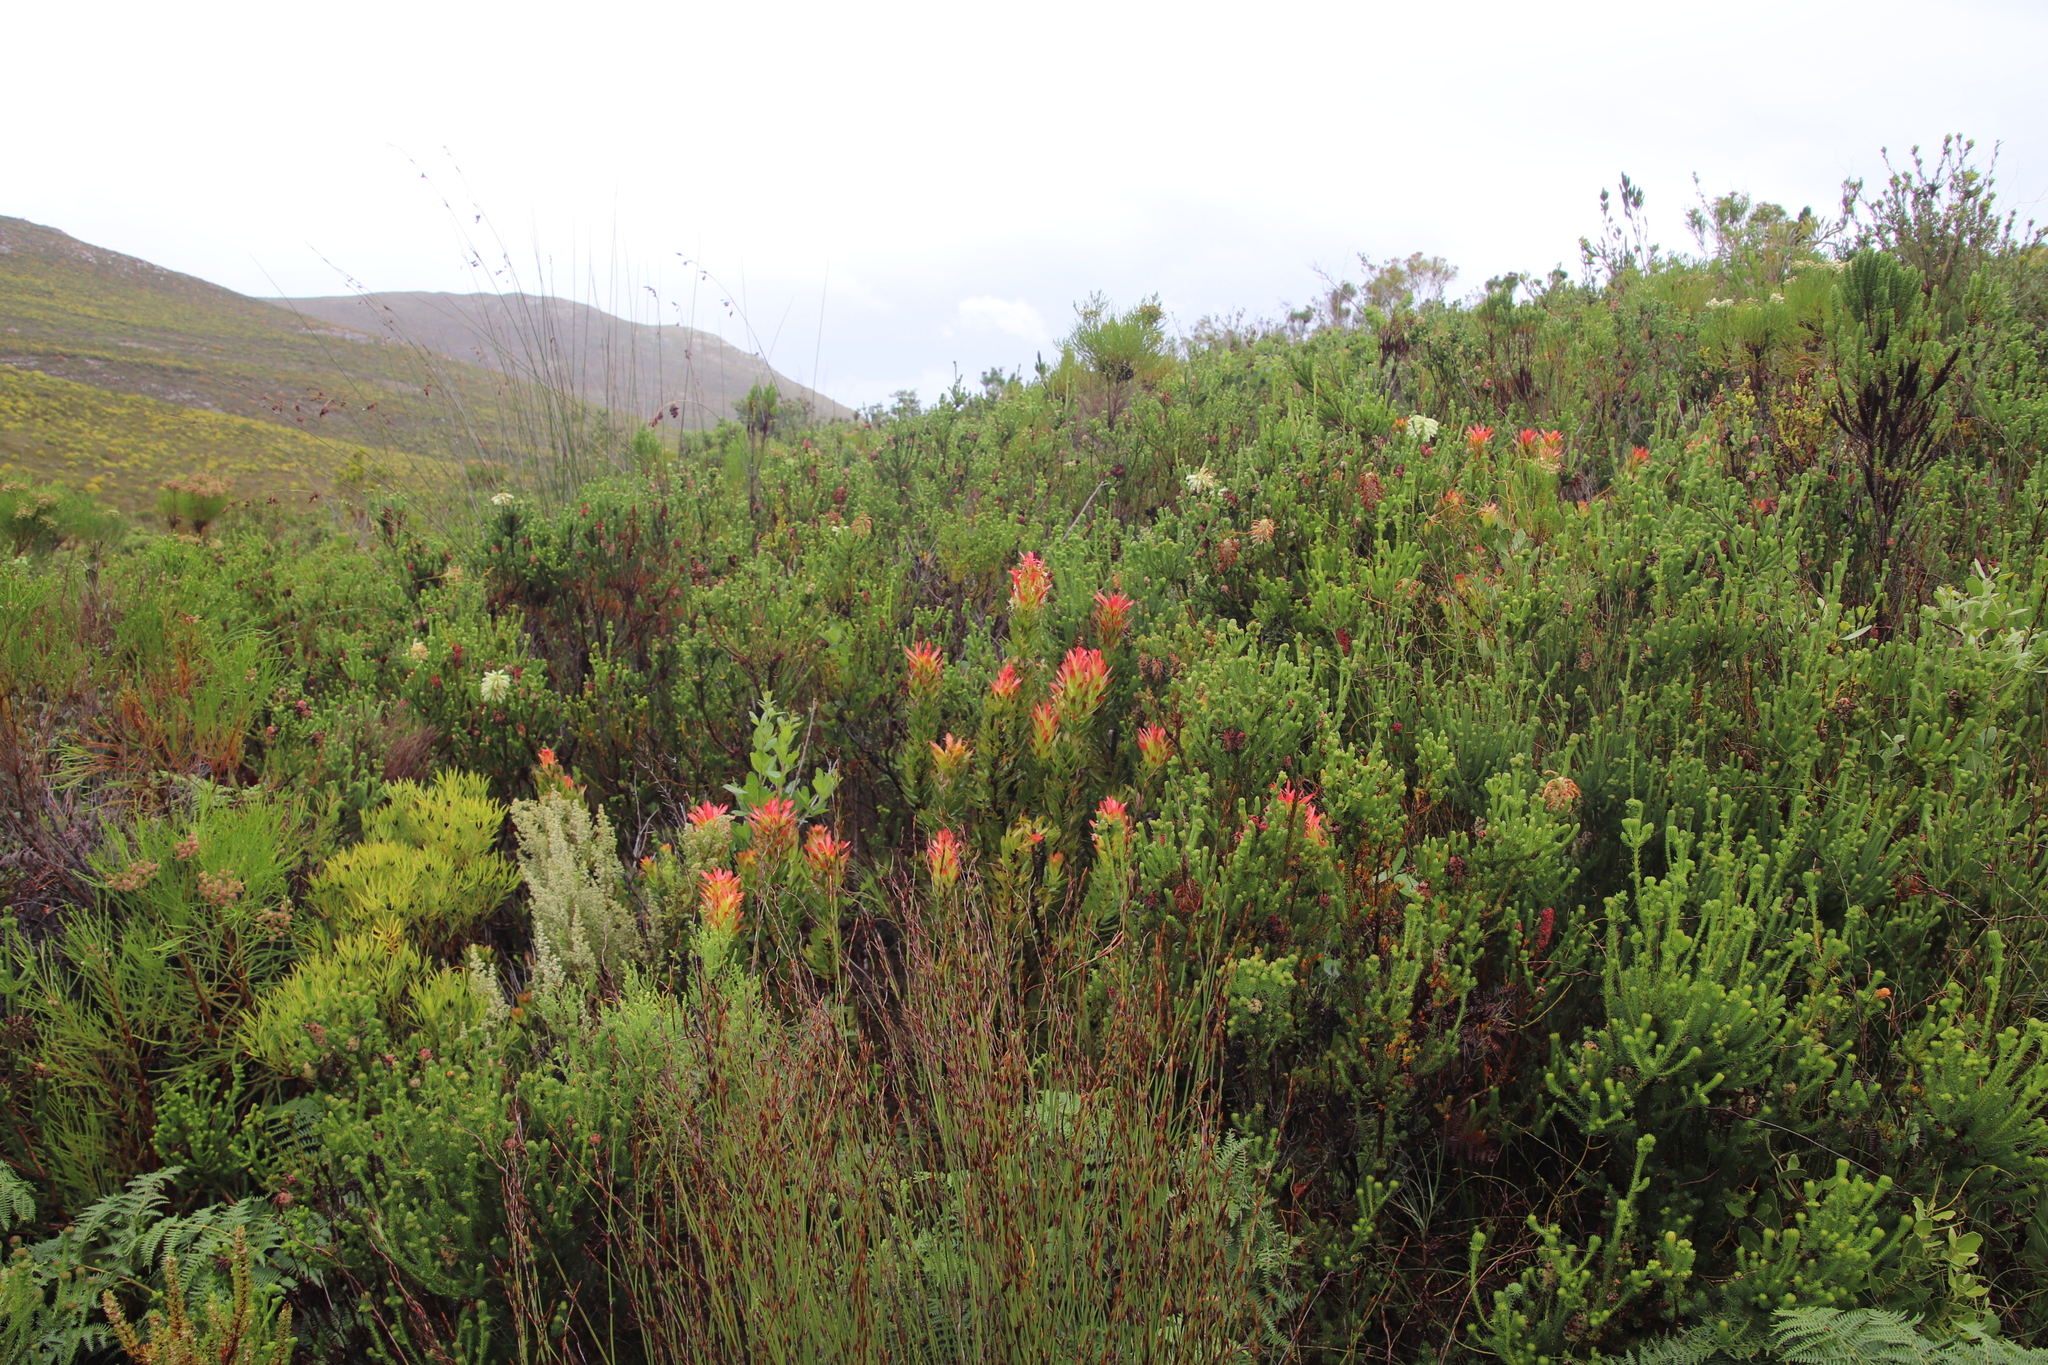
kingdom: Plantae
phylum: Tracheophyta
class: Magnoliopsida
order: Proteales
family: Proteaceae
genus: Mimetes
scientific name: Mimetes cucullatus
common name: Common pagoda
